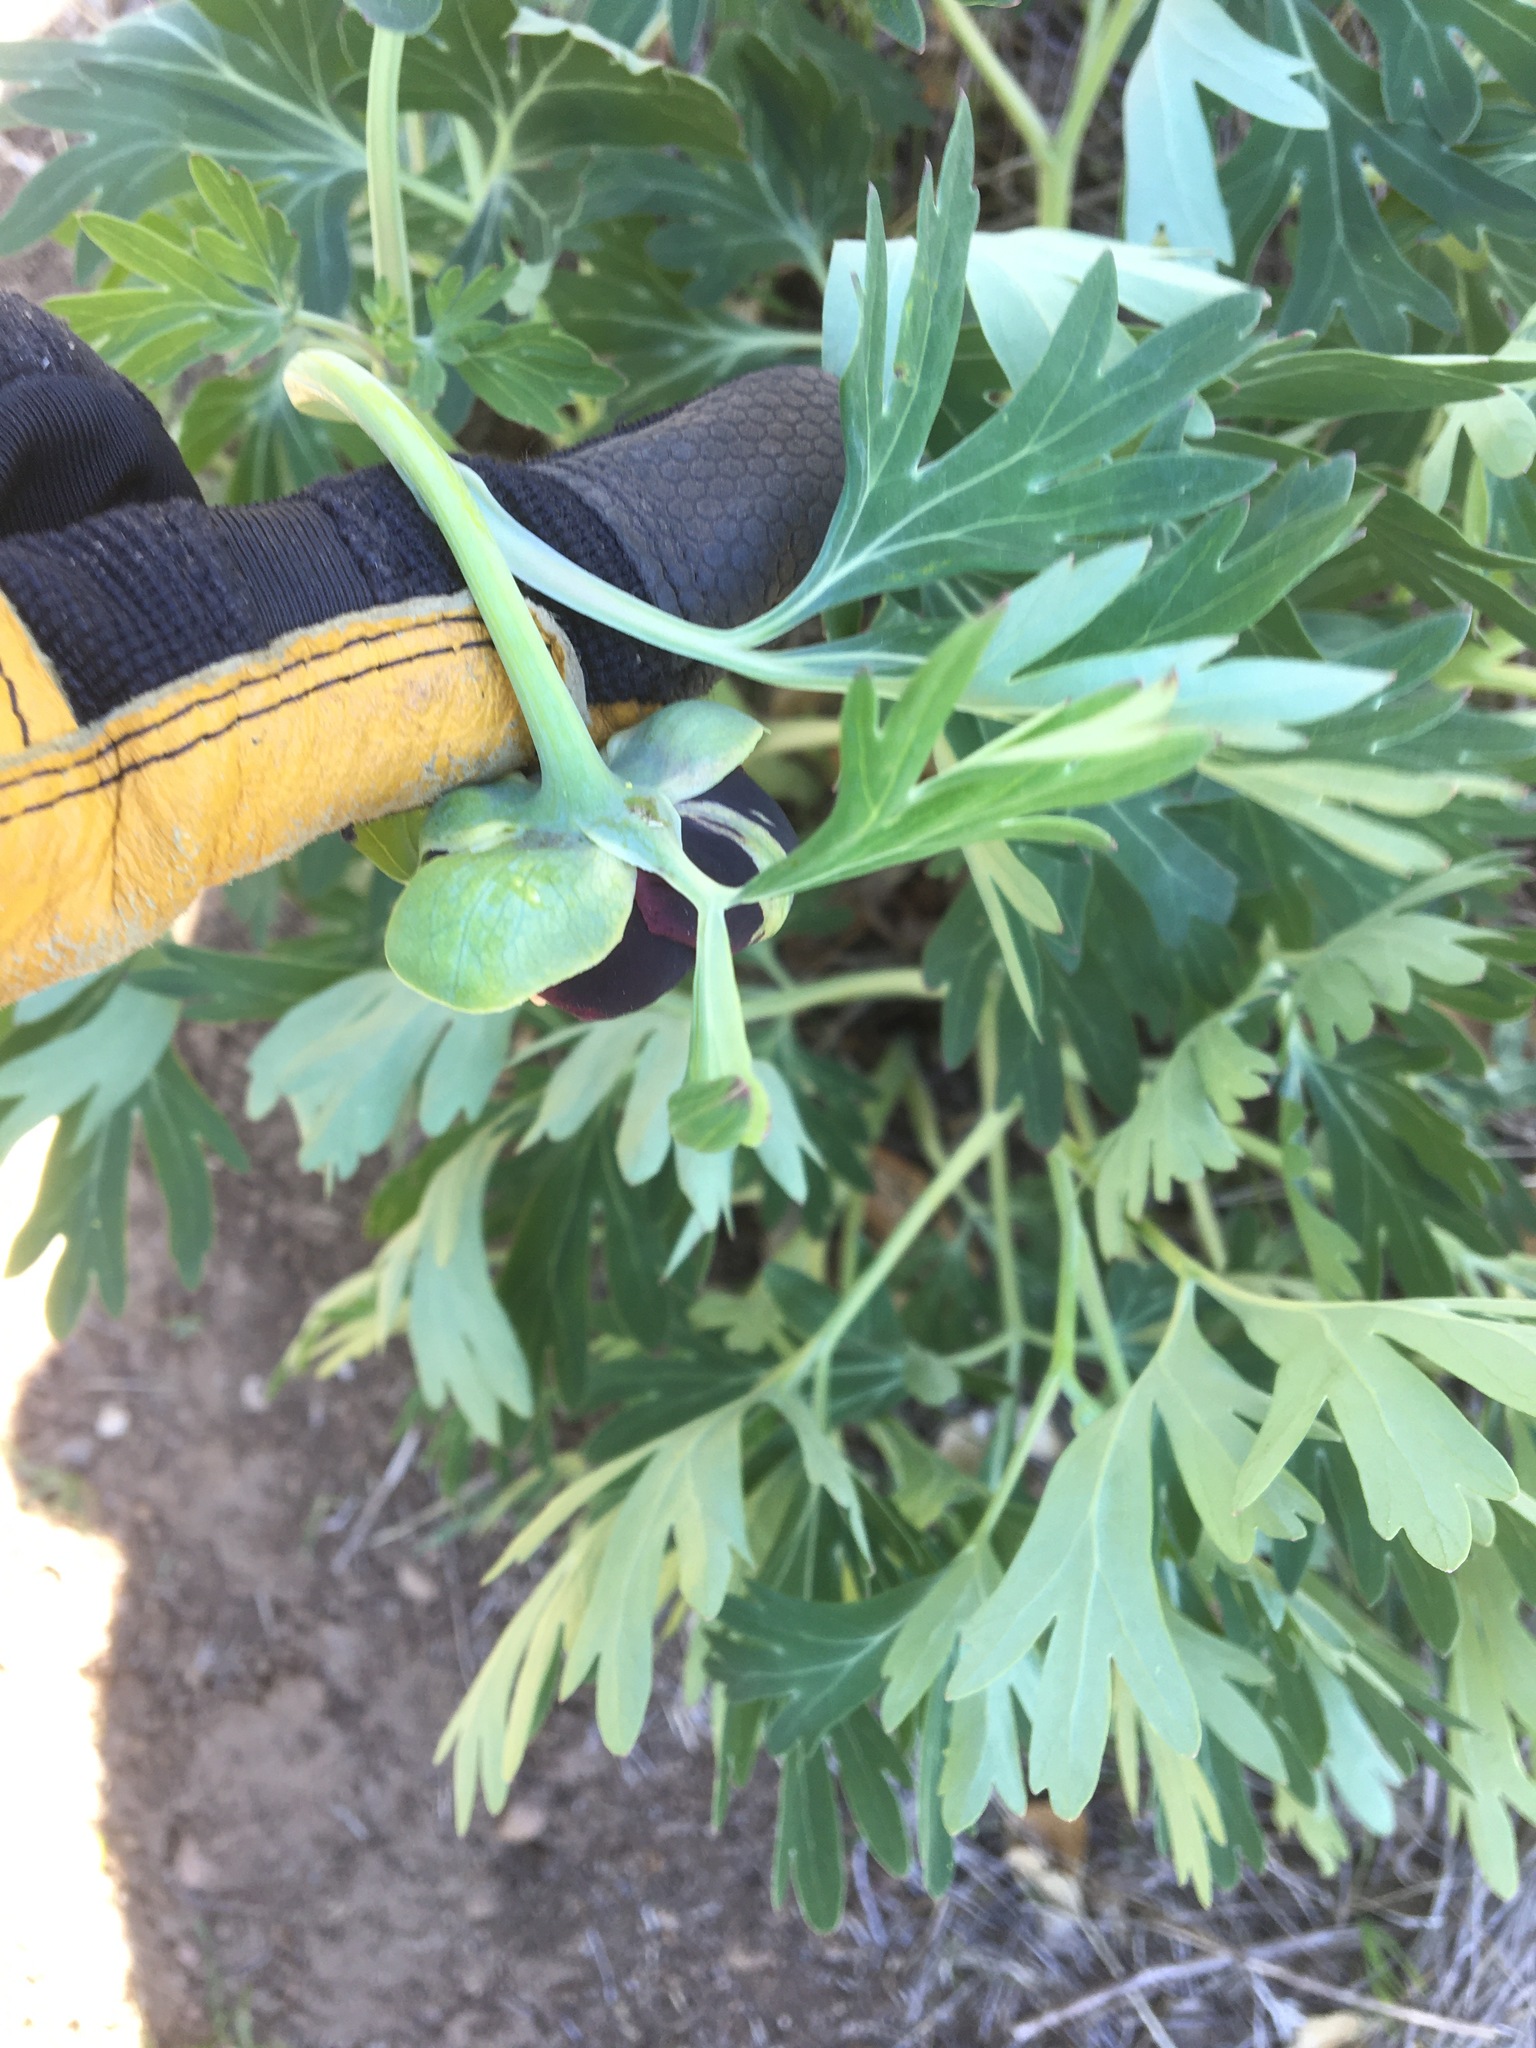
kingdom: Plantae
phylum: Tracheophyta
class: Magnoliopsida
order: Saxifragales
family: Paeoniaceae
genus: Paeonia
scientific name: Paeonia californica
